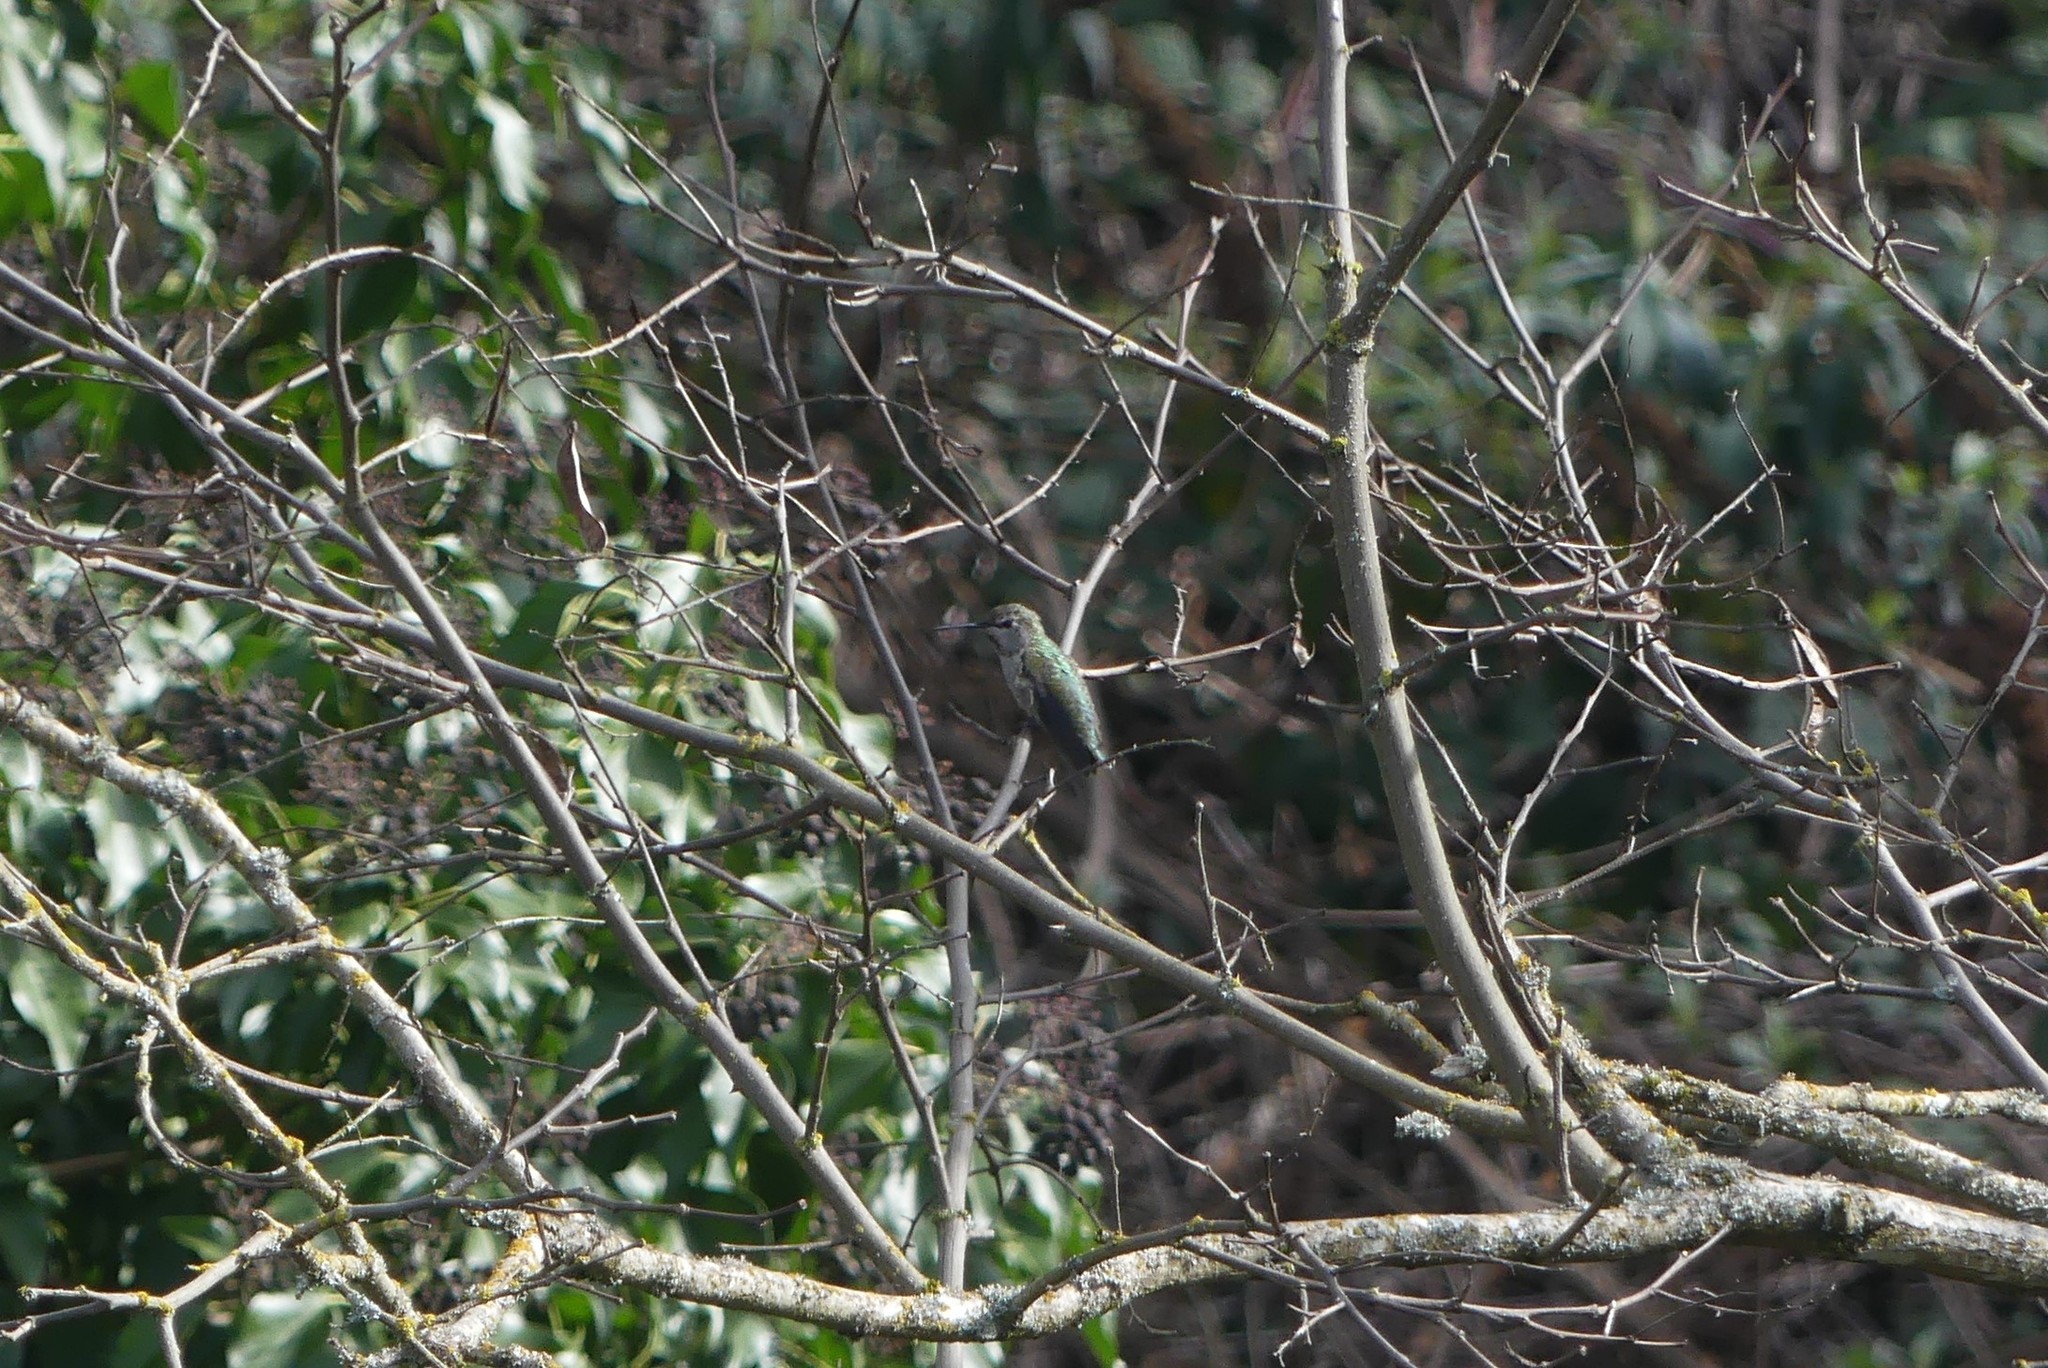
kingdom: Animalia
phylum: Chordata
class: Aves
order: Apodiformes
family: Trochilidae
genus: Calypte
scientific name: Calypte anna
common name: Anna's hummingbird
